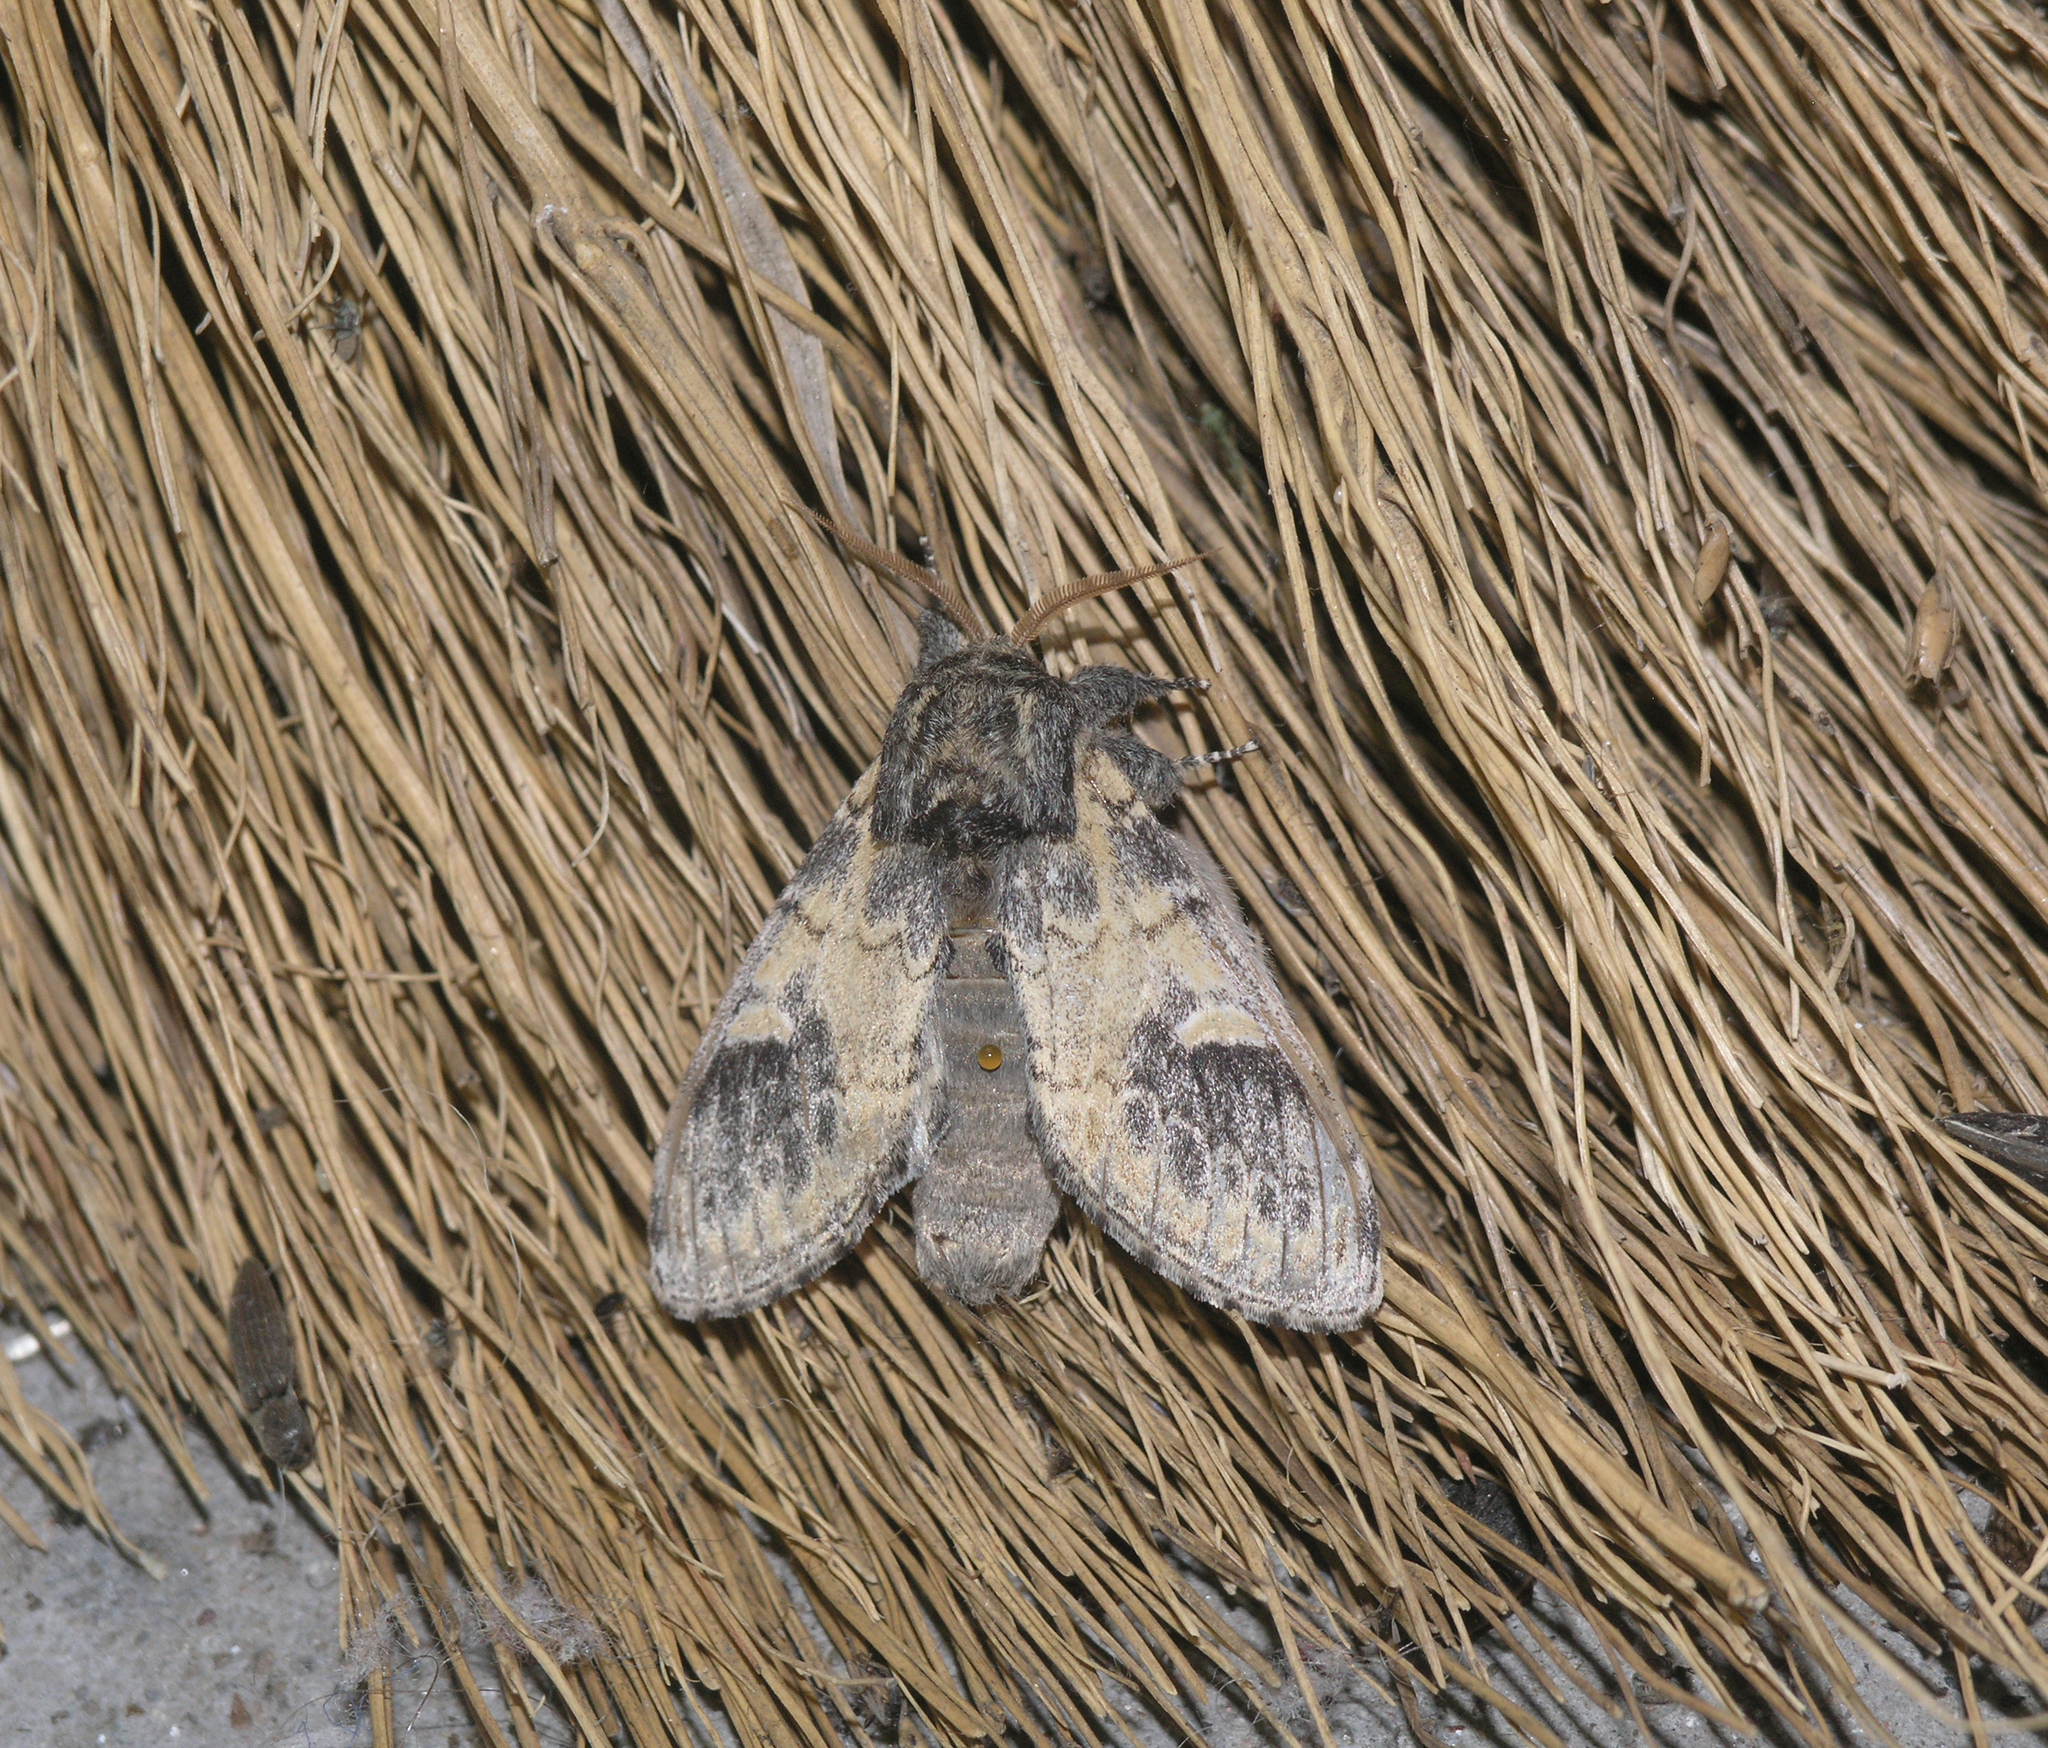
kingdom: Animalia
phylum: Arthropoda
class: Insecta
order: Lepidoptera
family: Notodontidae
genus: Notodonta
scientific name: Notodonta tritophus
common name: Three-humped prominent
